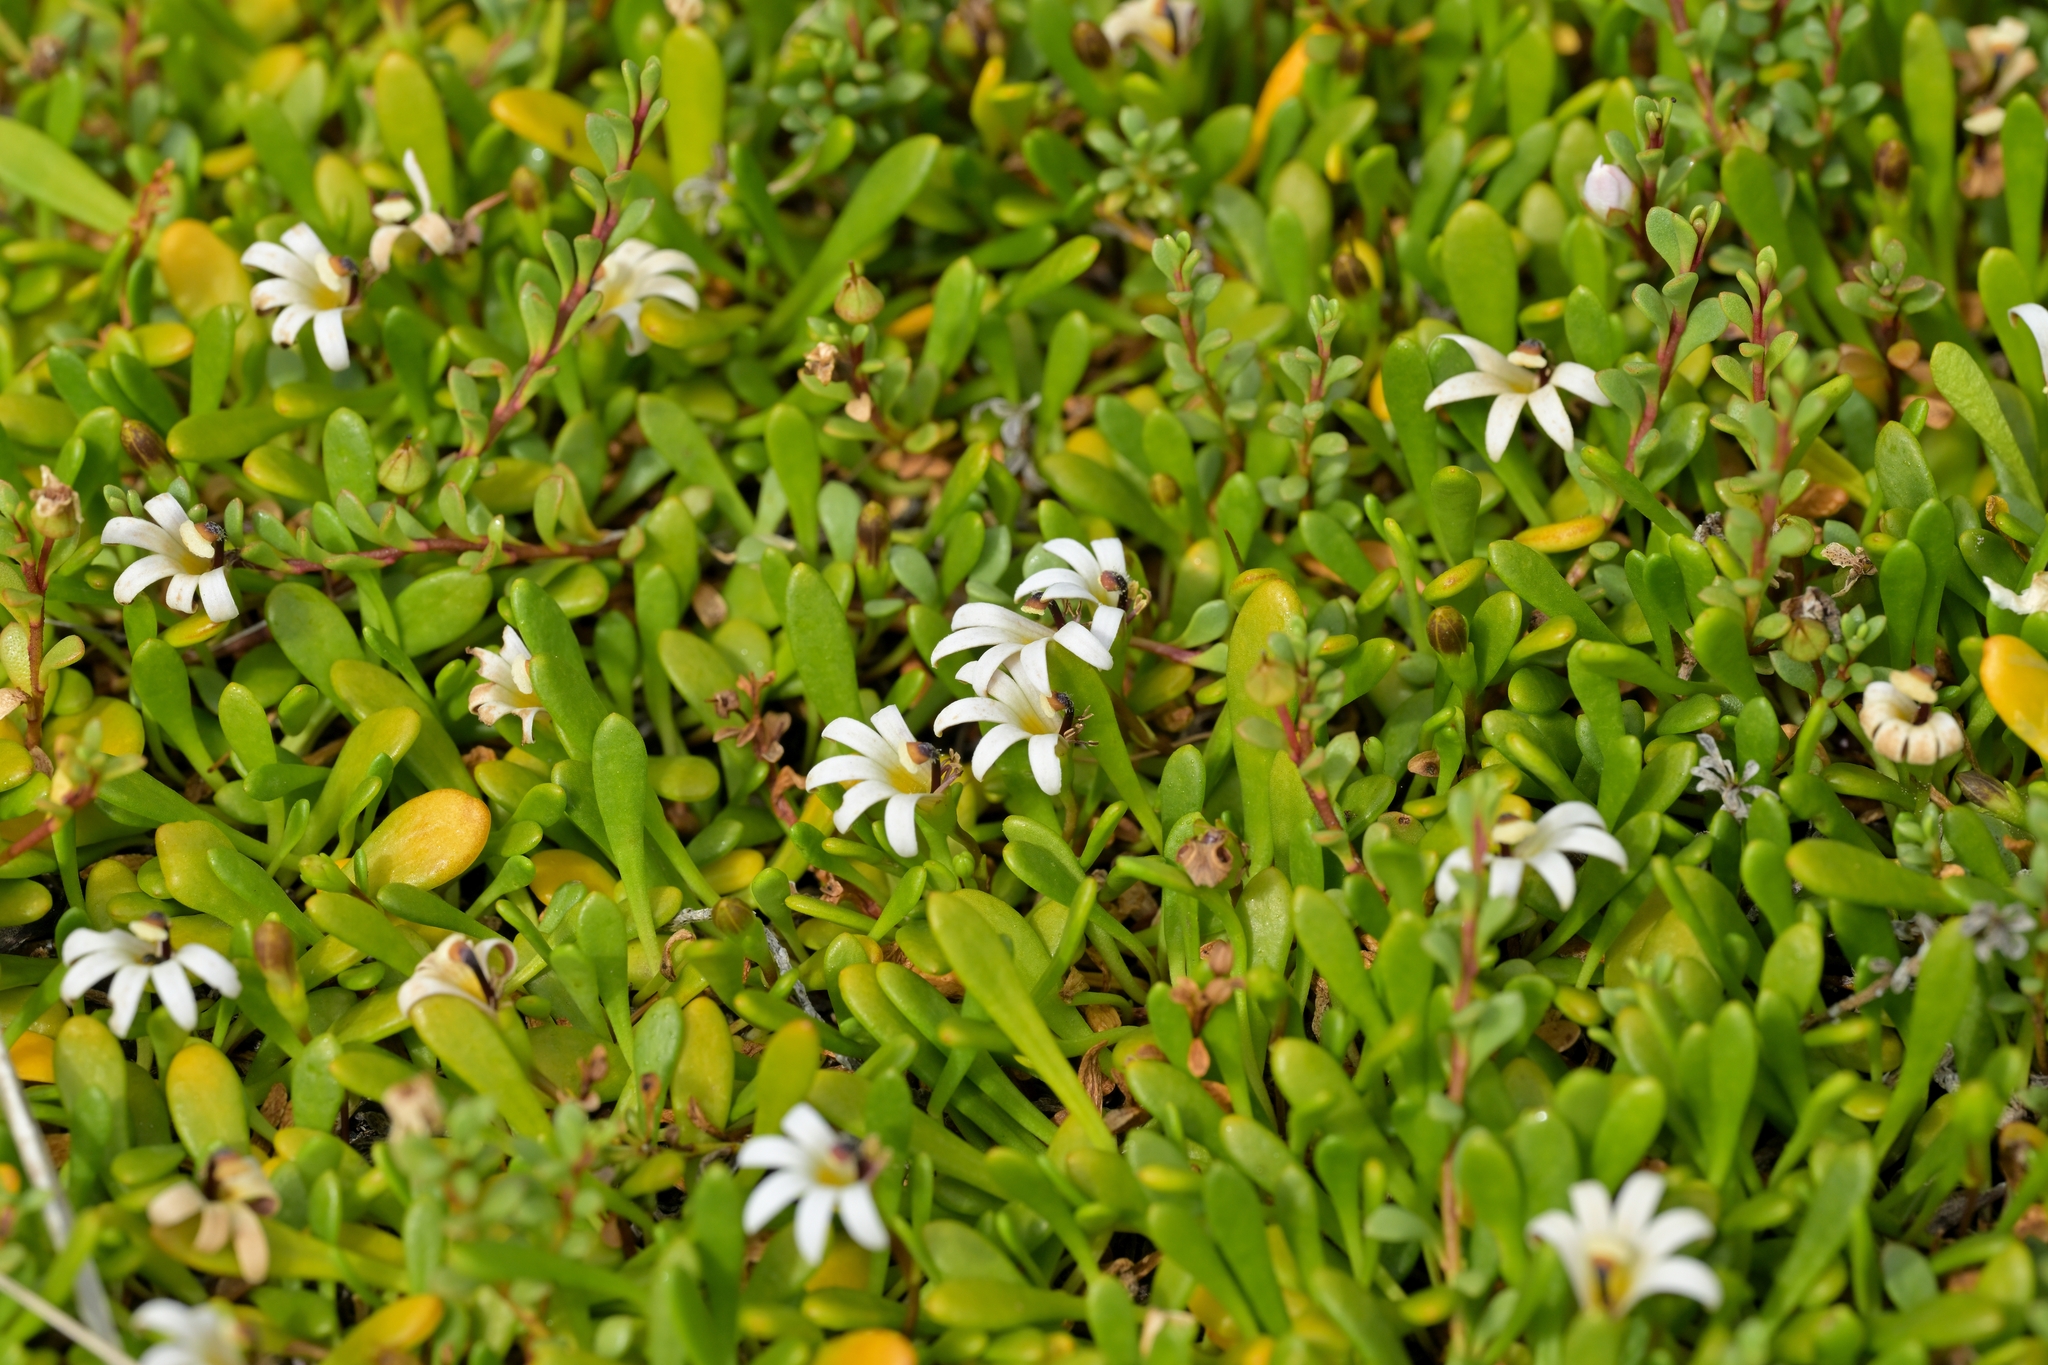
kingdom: Plantae
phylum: Tracheophyta
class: Magnoliopsida
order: Asterales
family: Goodeniaceae
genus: Goodenia
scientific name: Goodenia radicans
